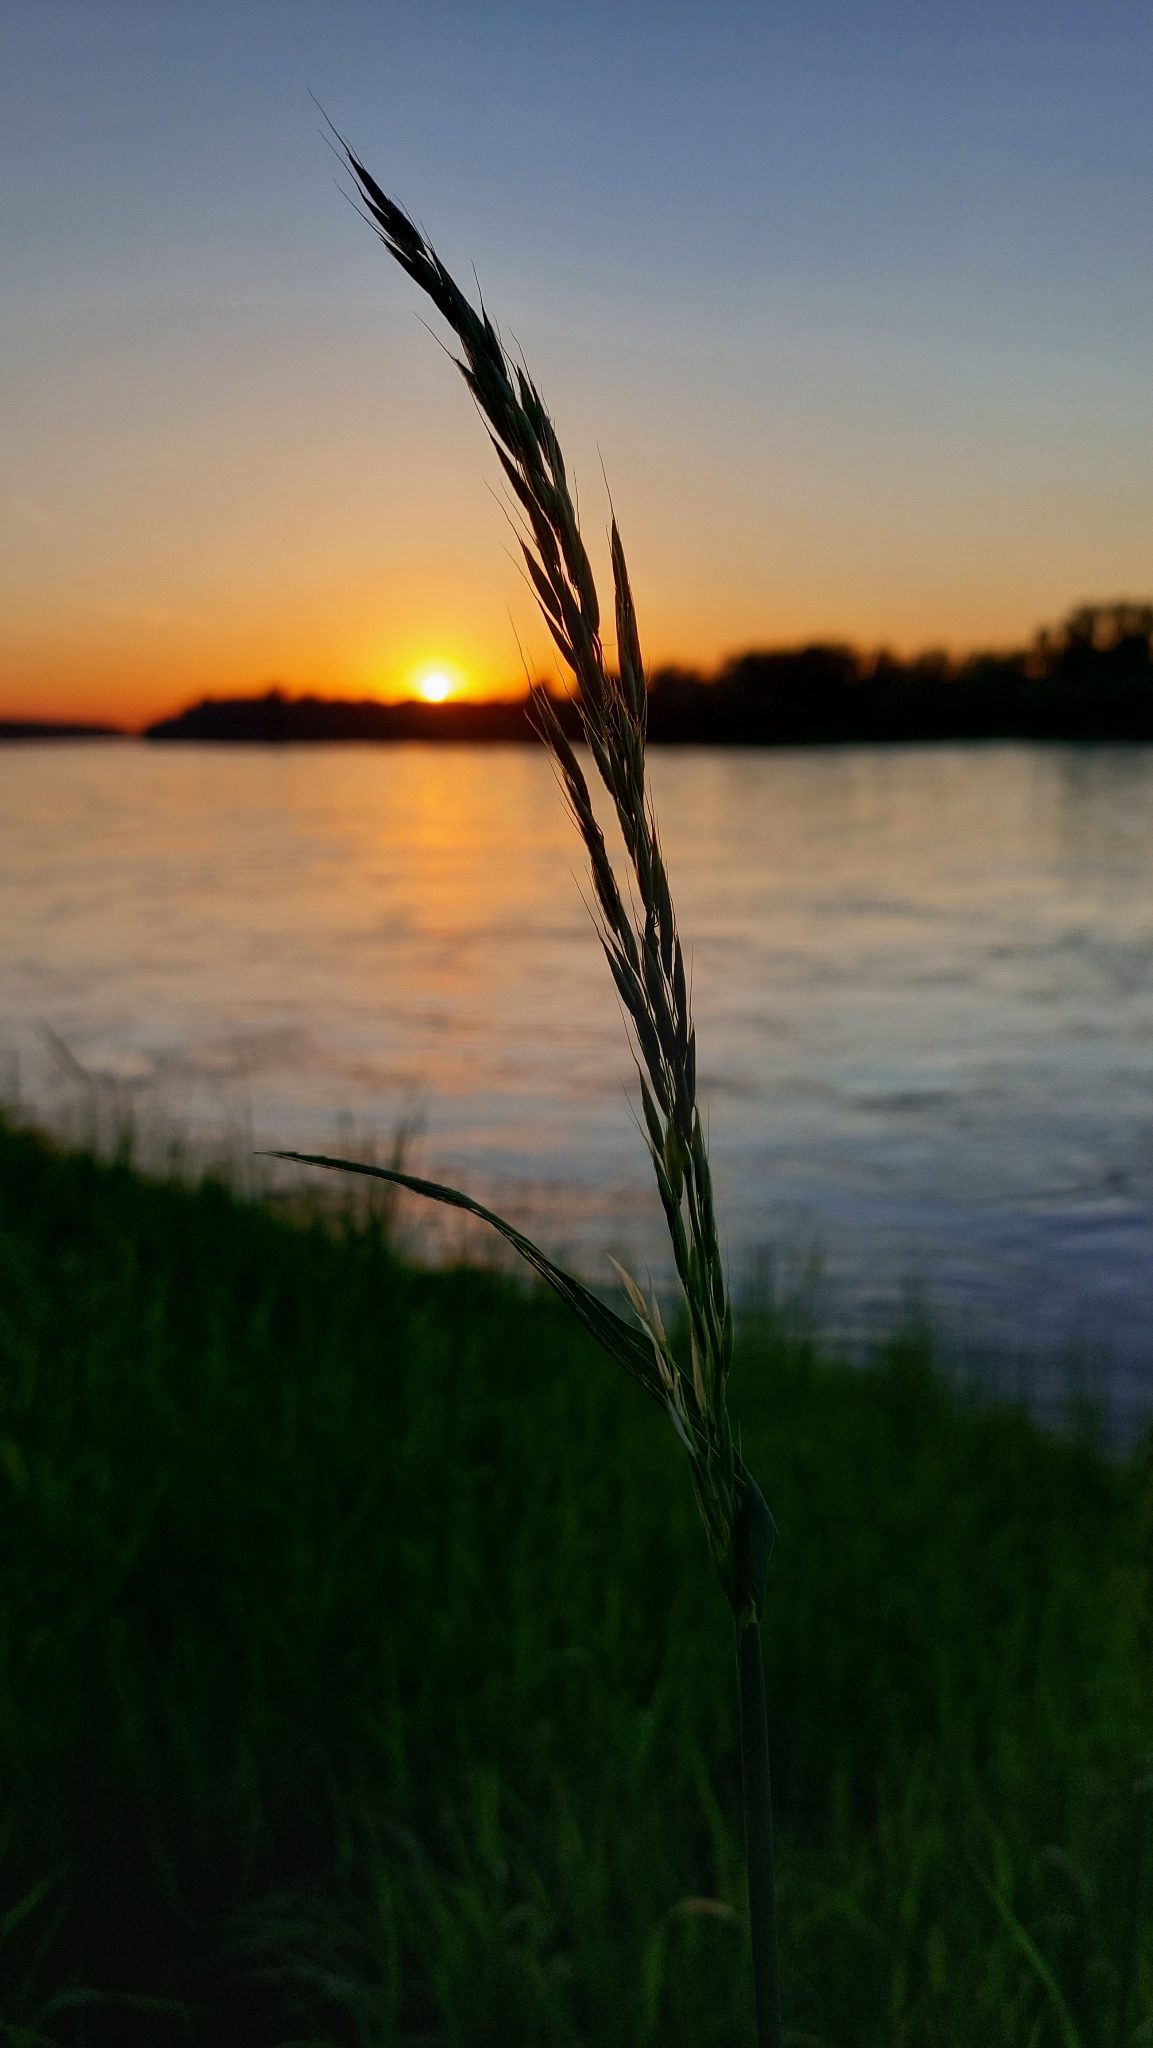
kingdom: Plantae
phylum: Tracheophyta
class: Liliopsida
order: Poales
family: Poaceae
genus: Arrhenatherum
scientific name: Arrhenatherum elatius
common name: Tall oatgrass
